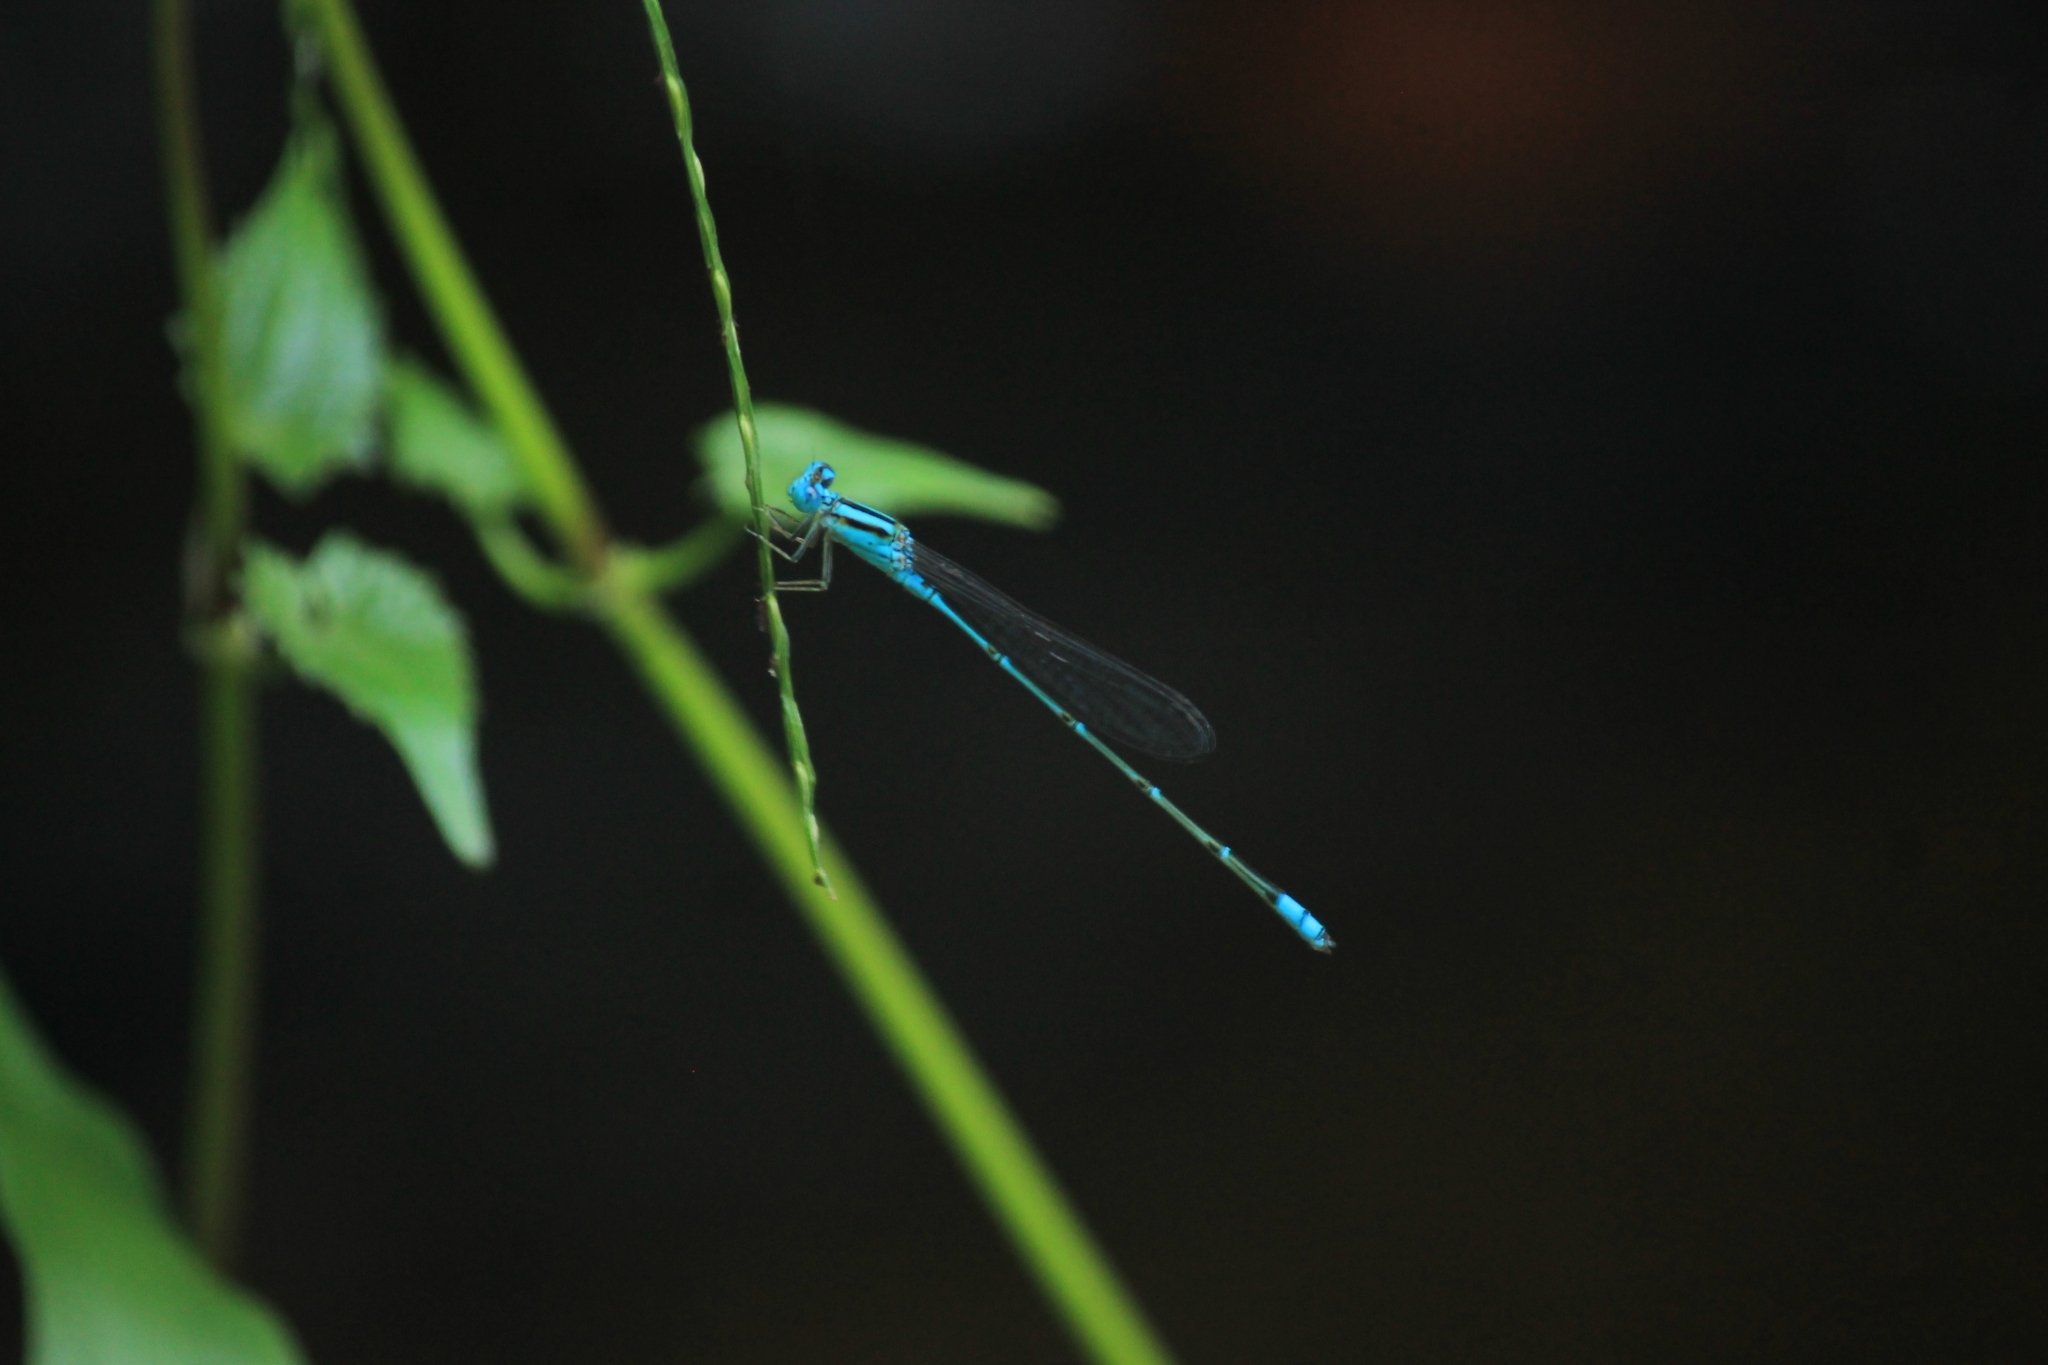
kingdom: Animalia
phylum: Arthropoda
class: Insecta
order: Odonata
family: Coenagrionidae
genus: Pseudagrion
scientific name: Pseudagrion microcephalum
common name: Blue riverdamsel
